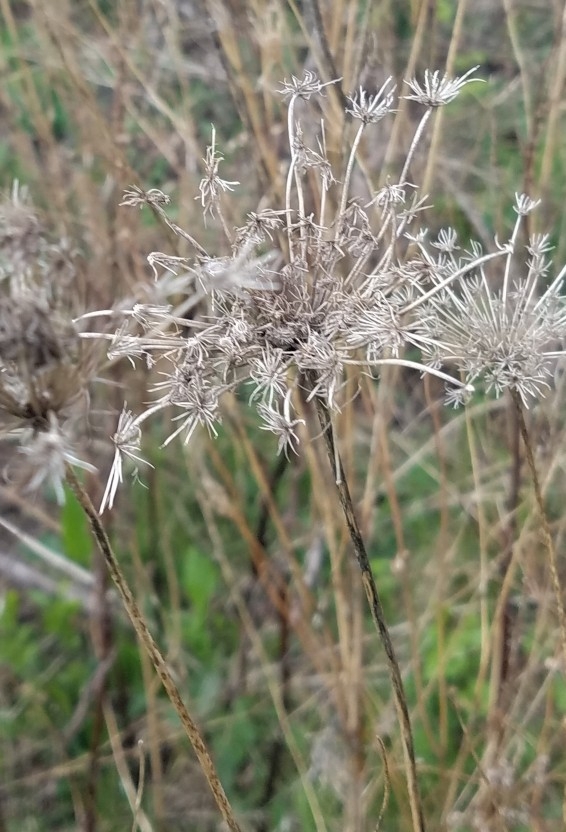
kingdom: Plantae
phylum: Tracheophyta
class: Magnoliopsida
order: Apiales
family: Apiaceae
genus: Daucus
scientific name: Daucus carota
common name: Wild carrot
